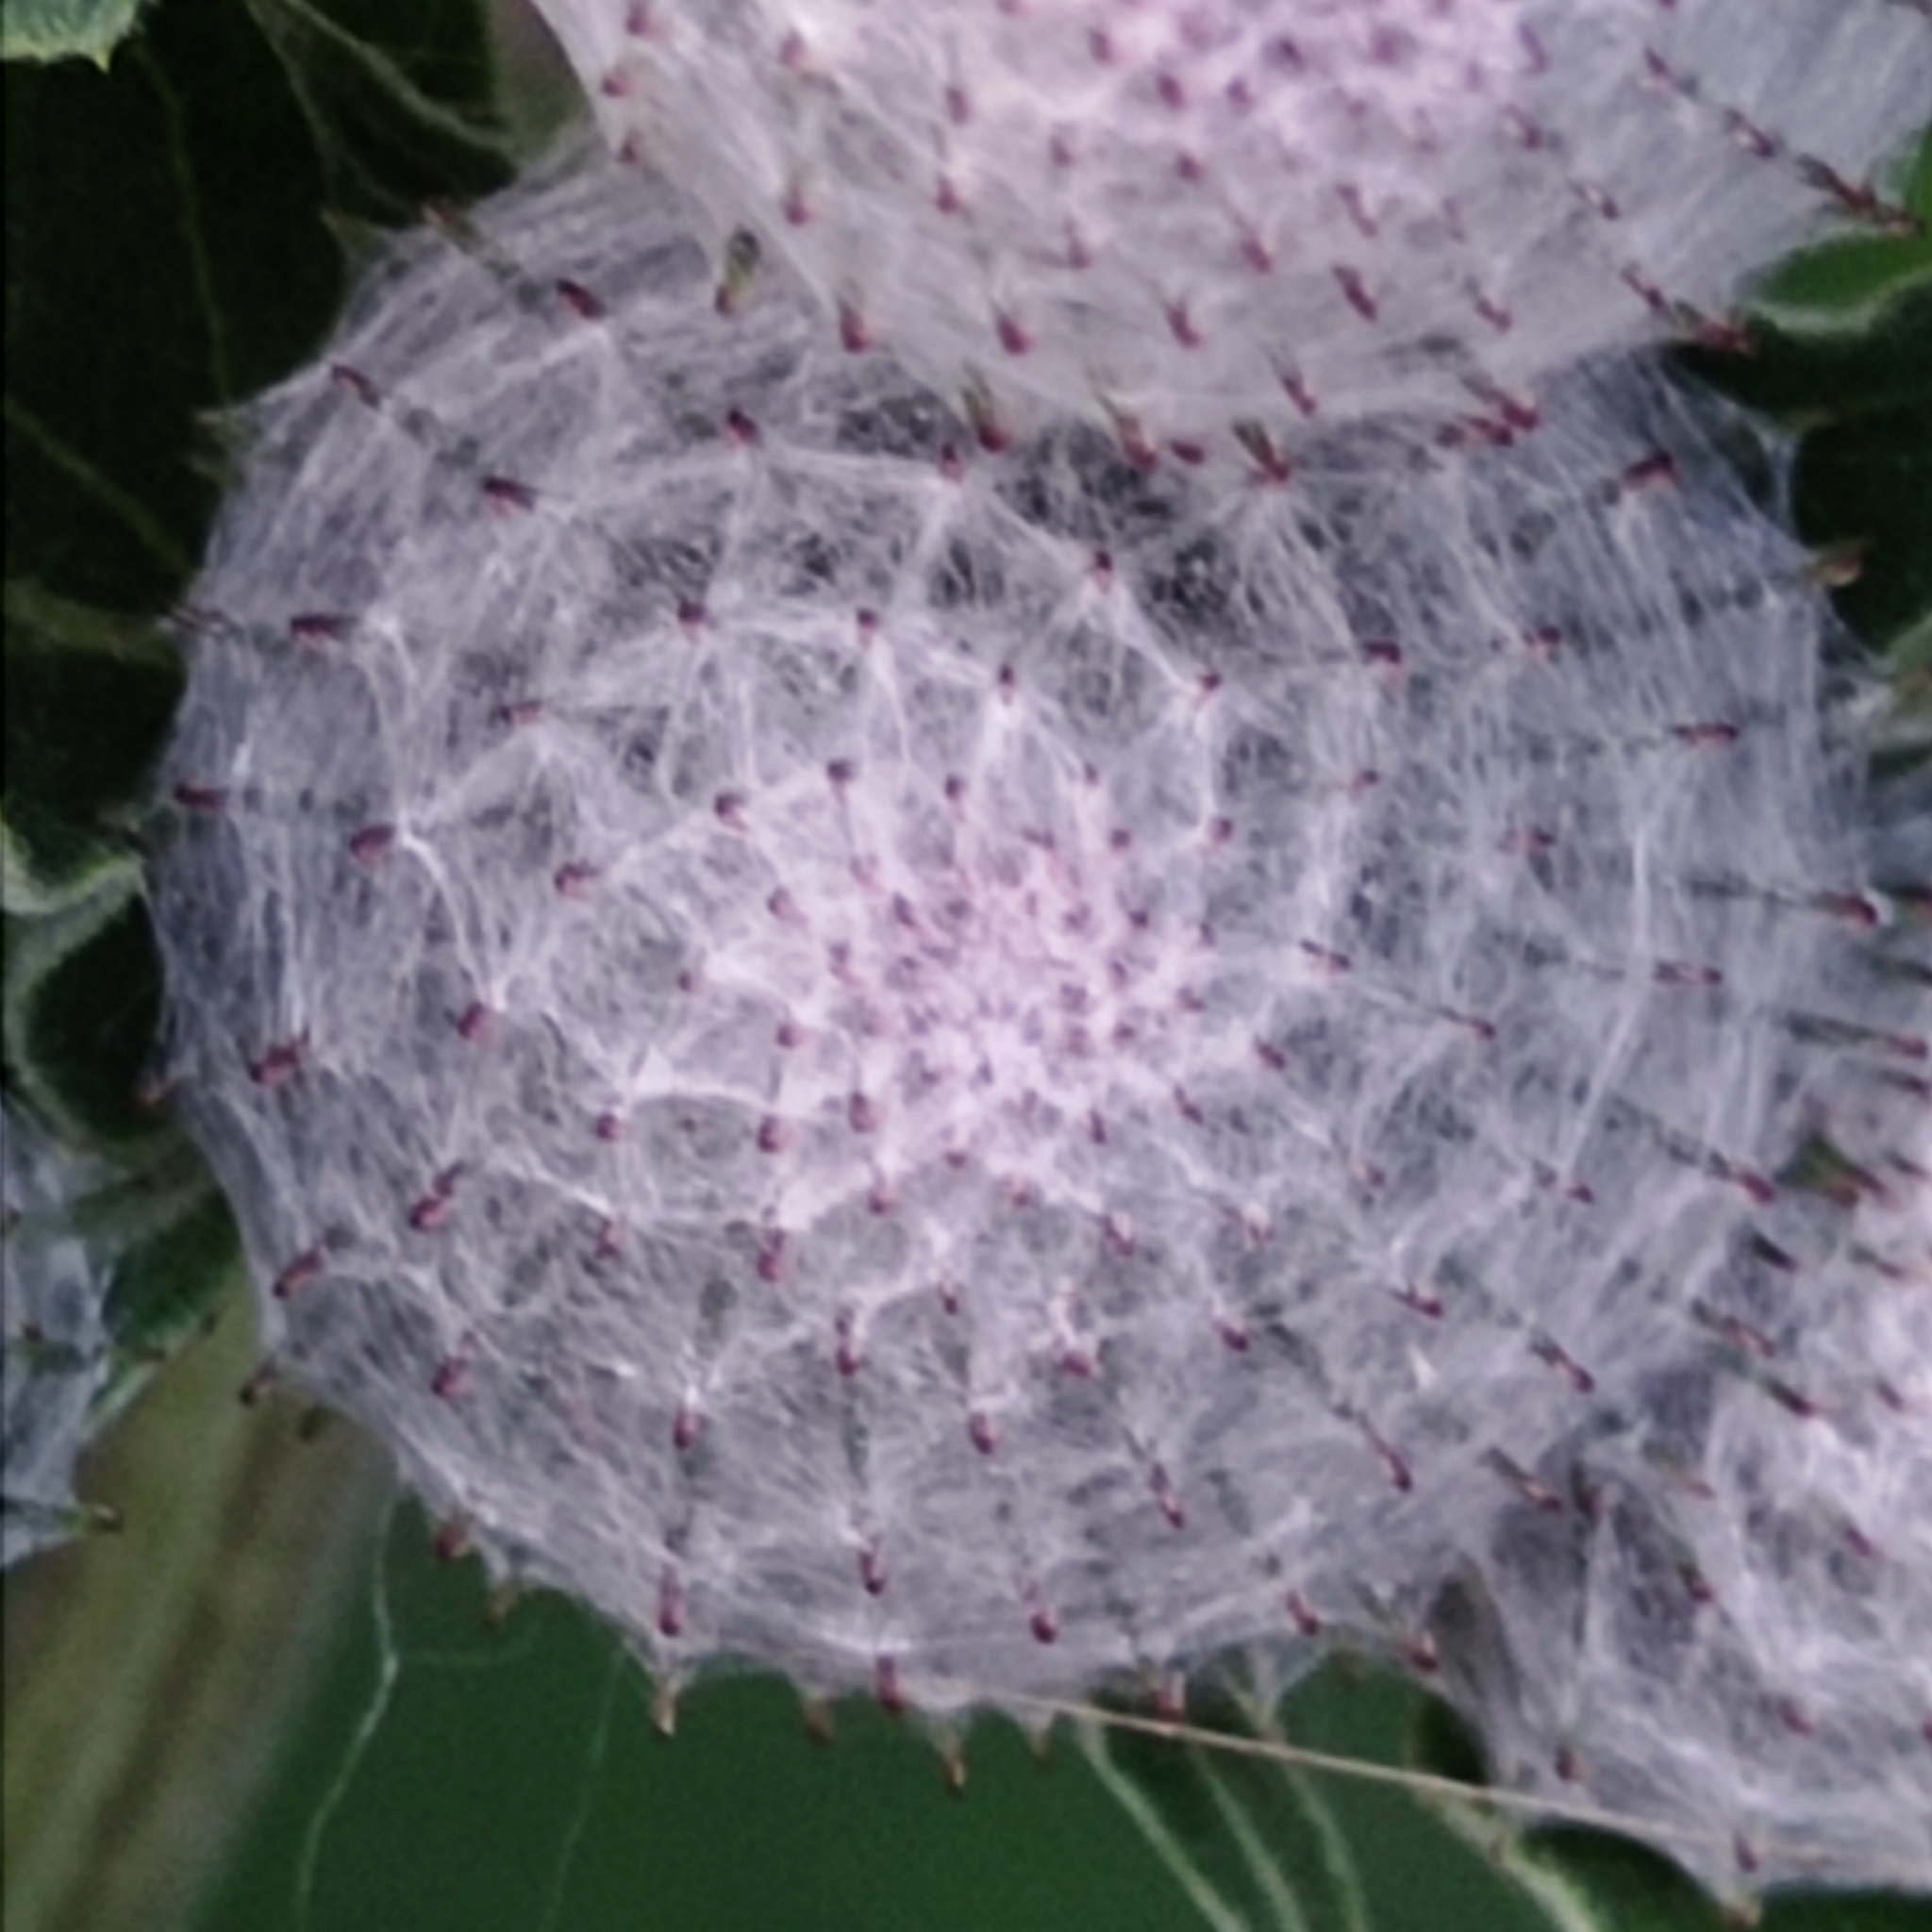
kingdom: Plantae
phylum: Tracheophyta
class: Magnoliopsida
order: Asterales
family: Asteraceae
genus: Arctium
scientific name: Arctium tomentosum
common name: Woolly burdock
